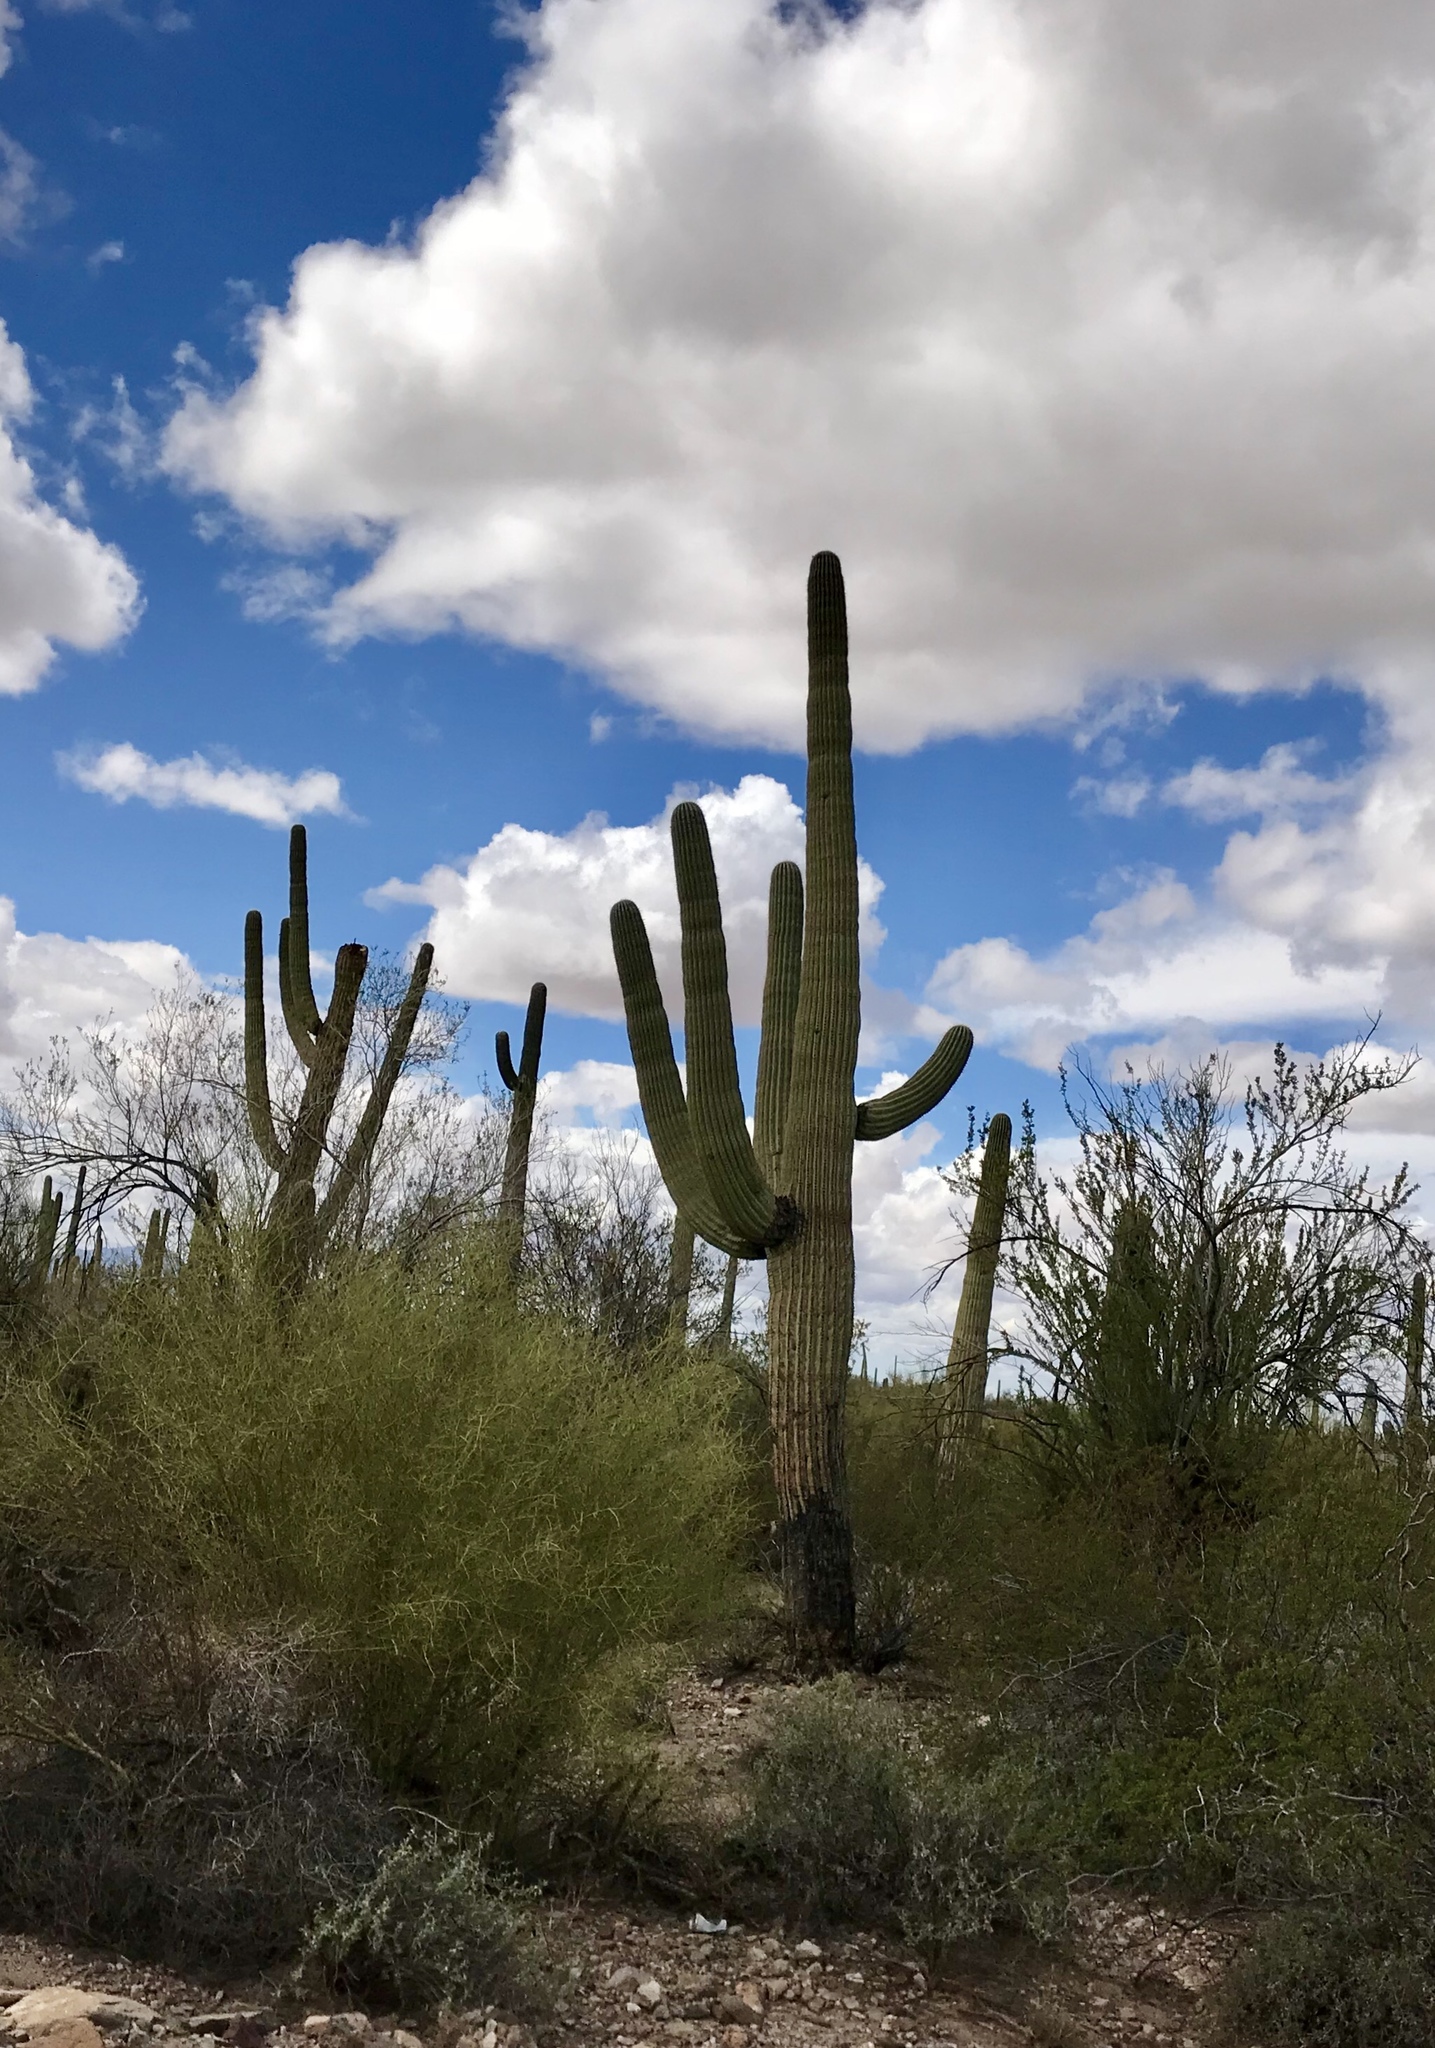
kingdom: Plantae
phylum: Tracheophyta
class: Magnoliopsida
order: Caryophyllales
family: Cactaceae
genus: Carnegiea
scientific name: Carnegiea gigantea
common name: Saguaro
